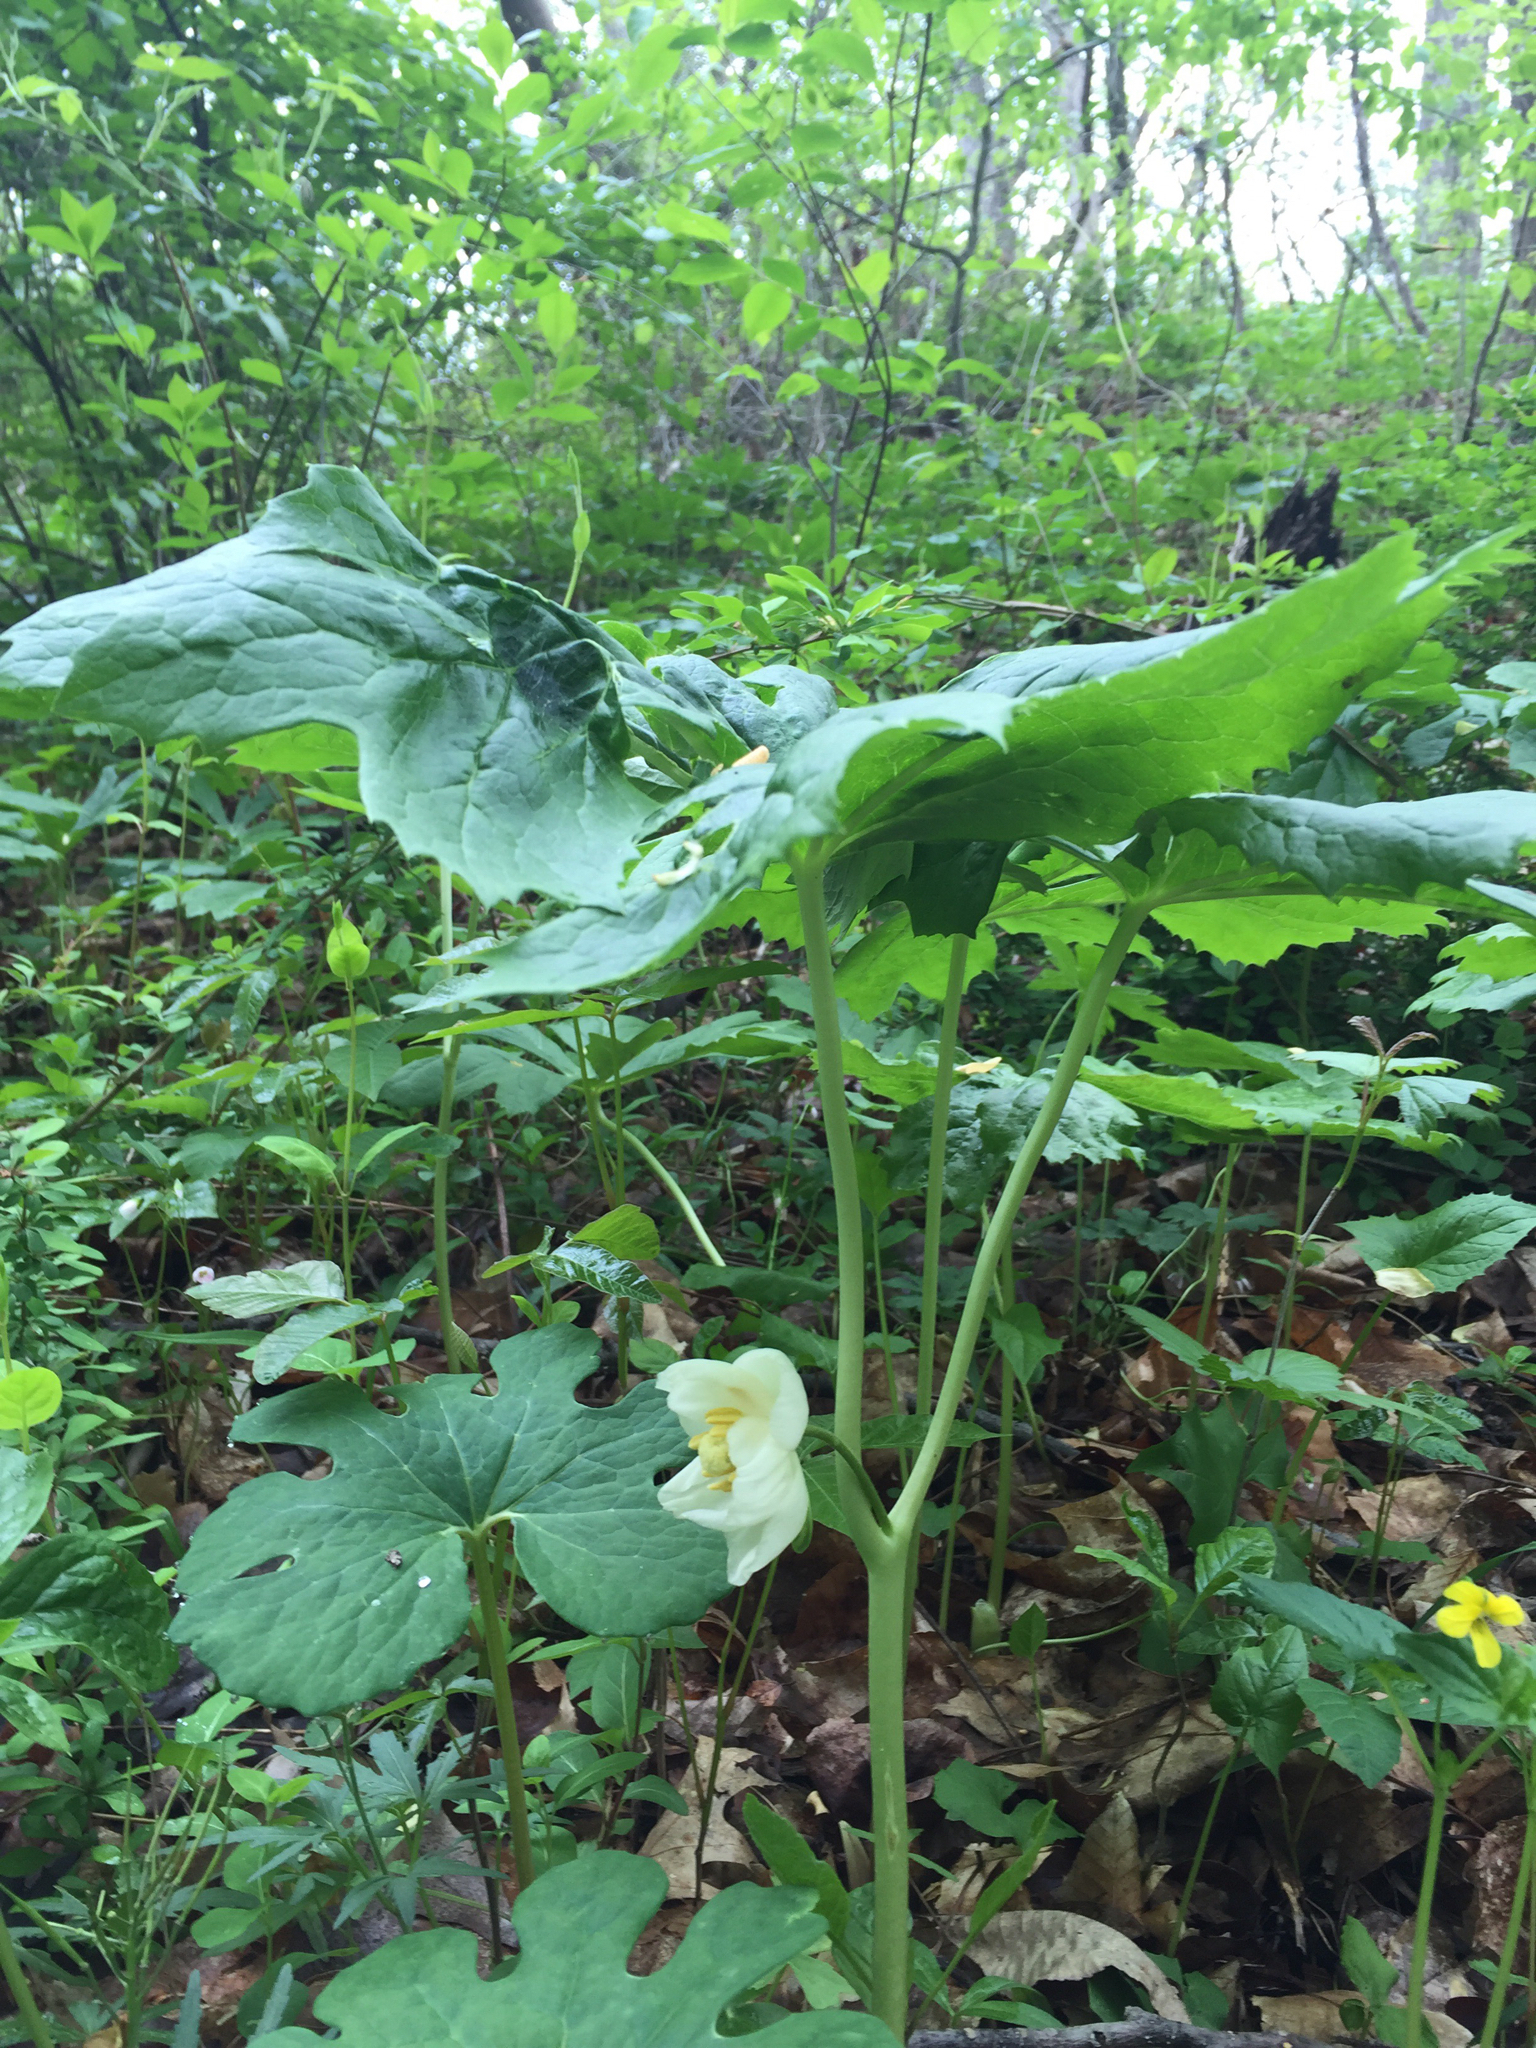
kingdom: Plantae
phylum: Tracheophyta
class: Magnoliopsida
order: Ranunculales
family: Berberidaceae
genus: Podophyllum
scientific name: Podophyllum peltatum
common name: Wild mandrake
